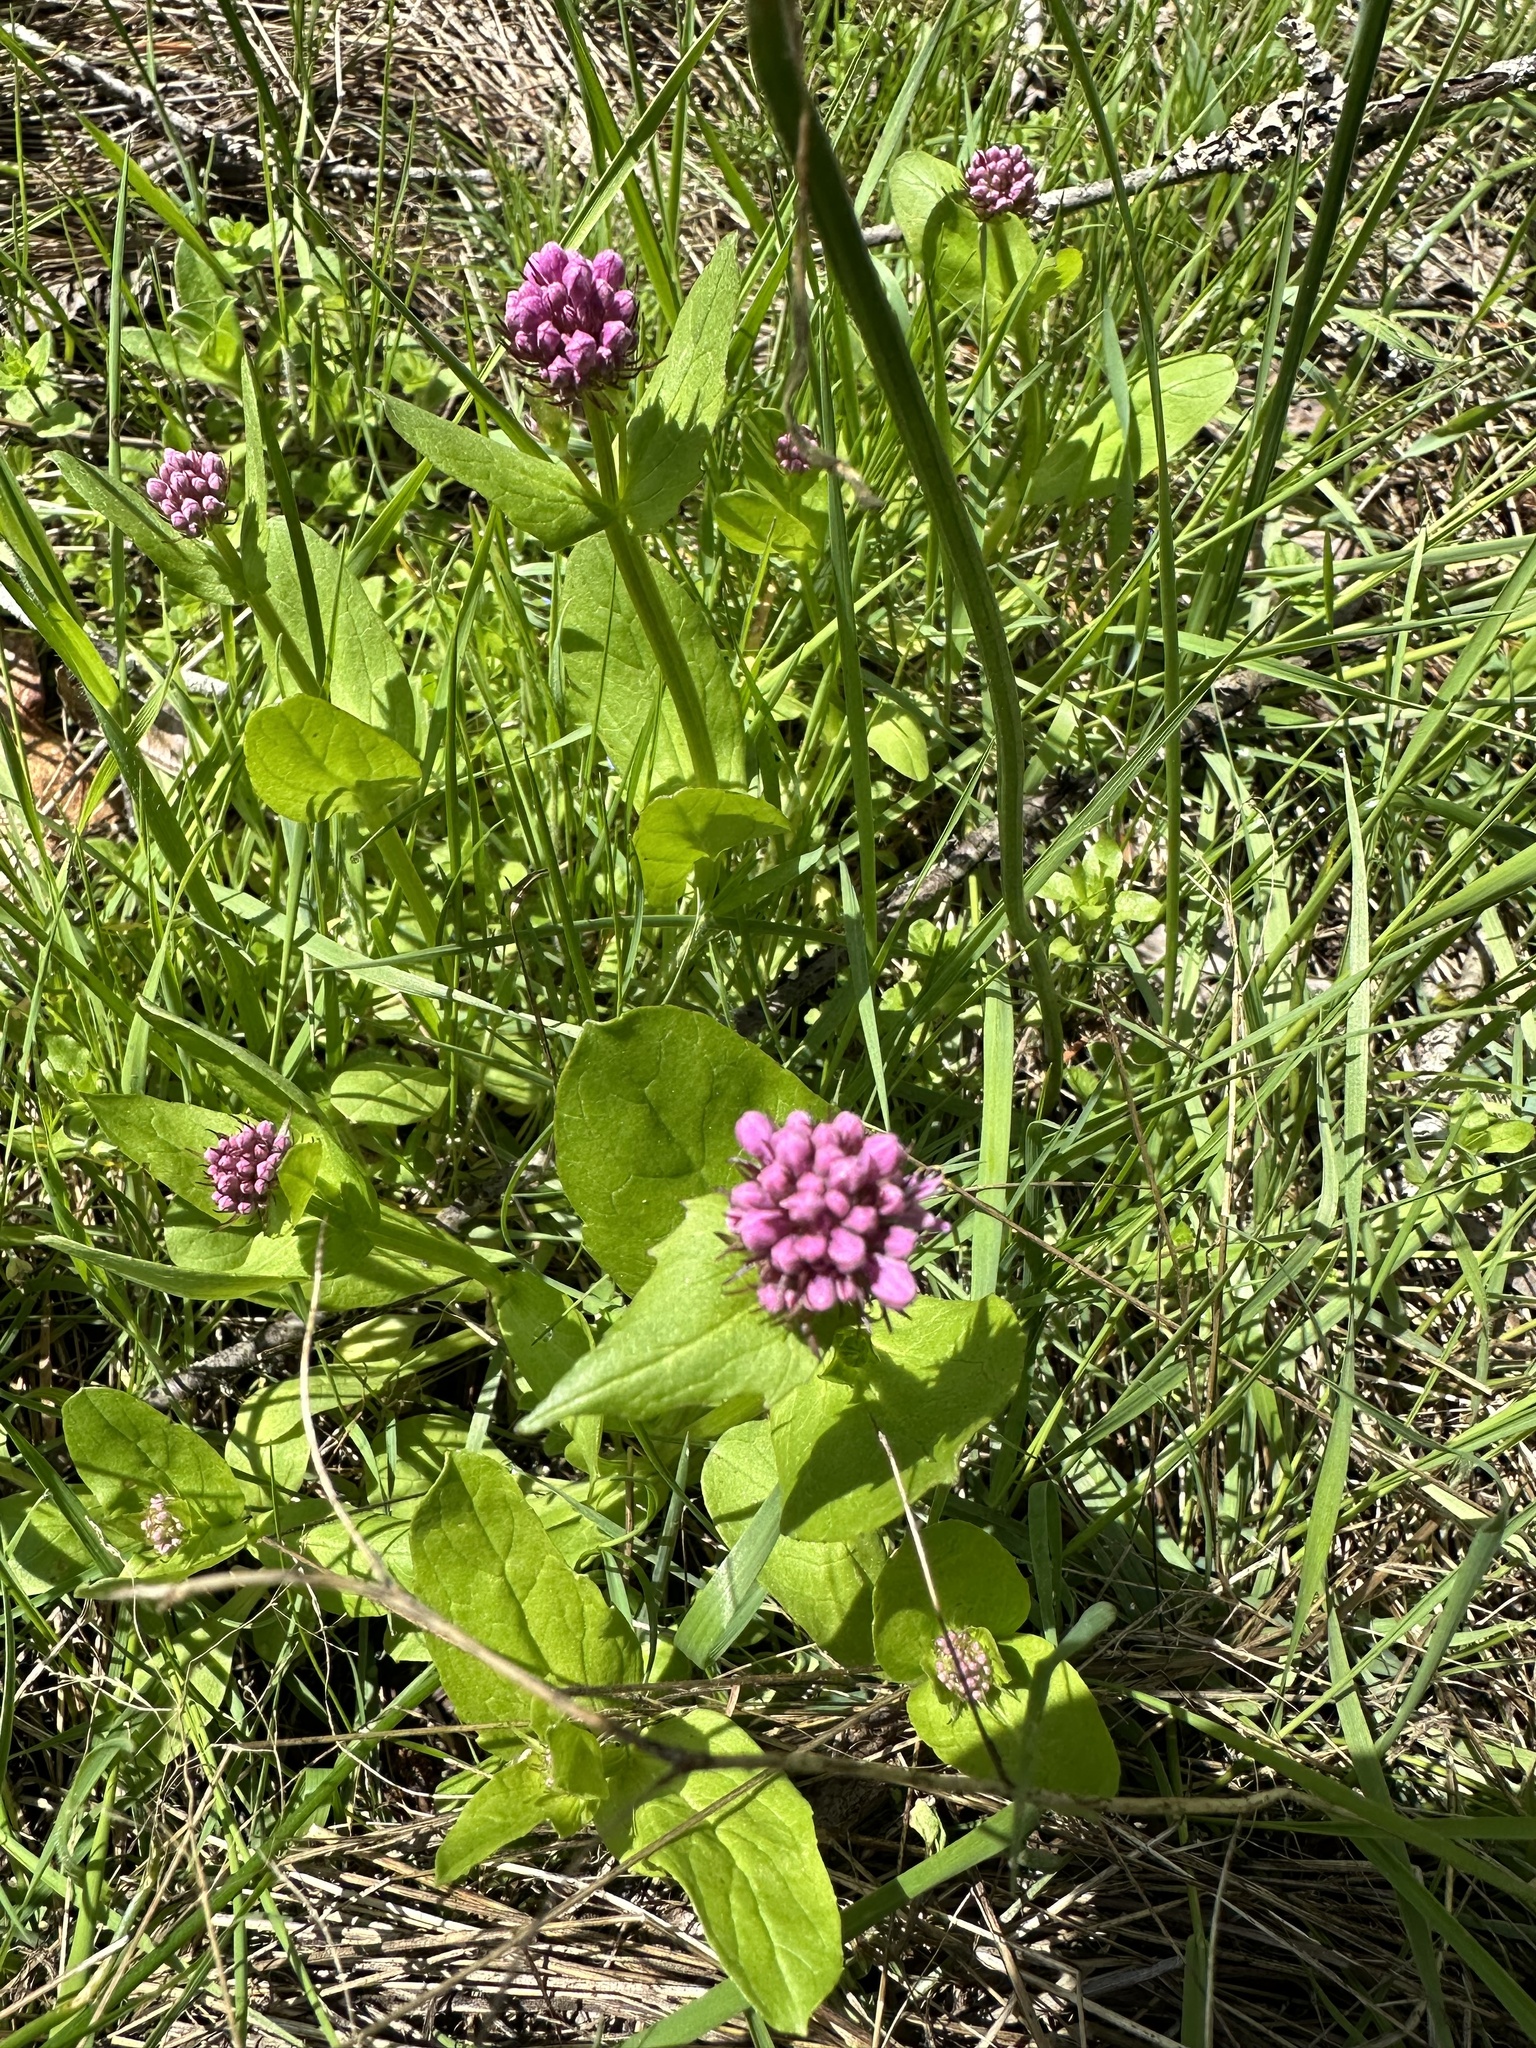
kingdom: Plantae
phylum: Tracheophyta
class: Magnoliopsida
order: Dipsacales
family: Caprifoliaceae
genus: Plectritis
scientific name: Plectritis congesta
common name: Pink plectritis
